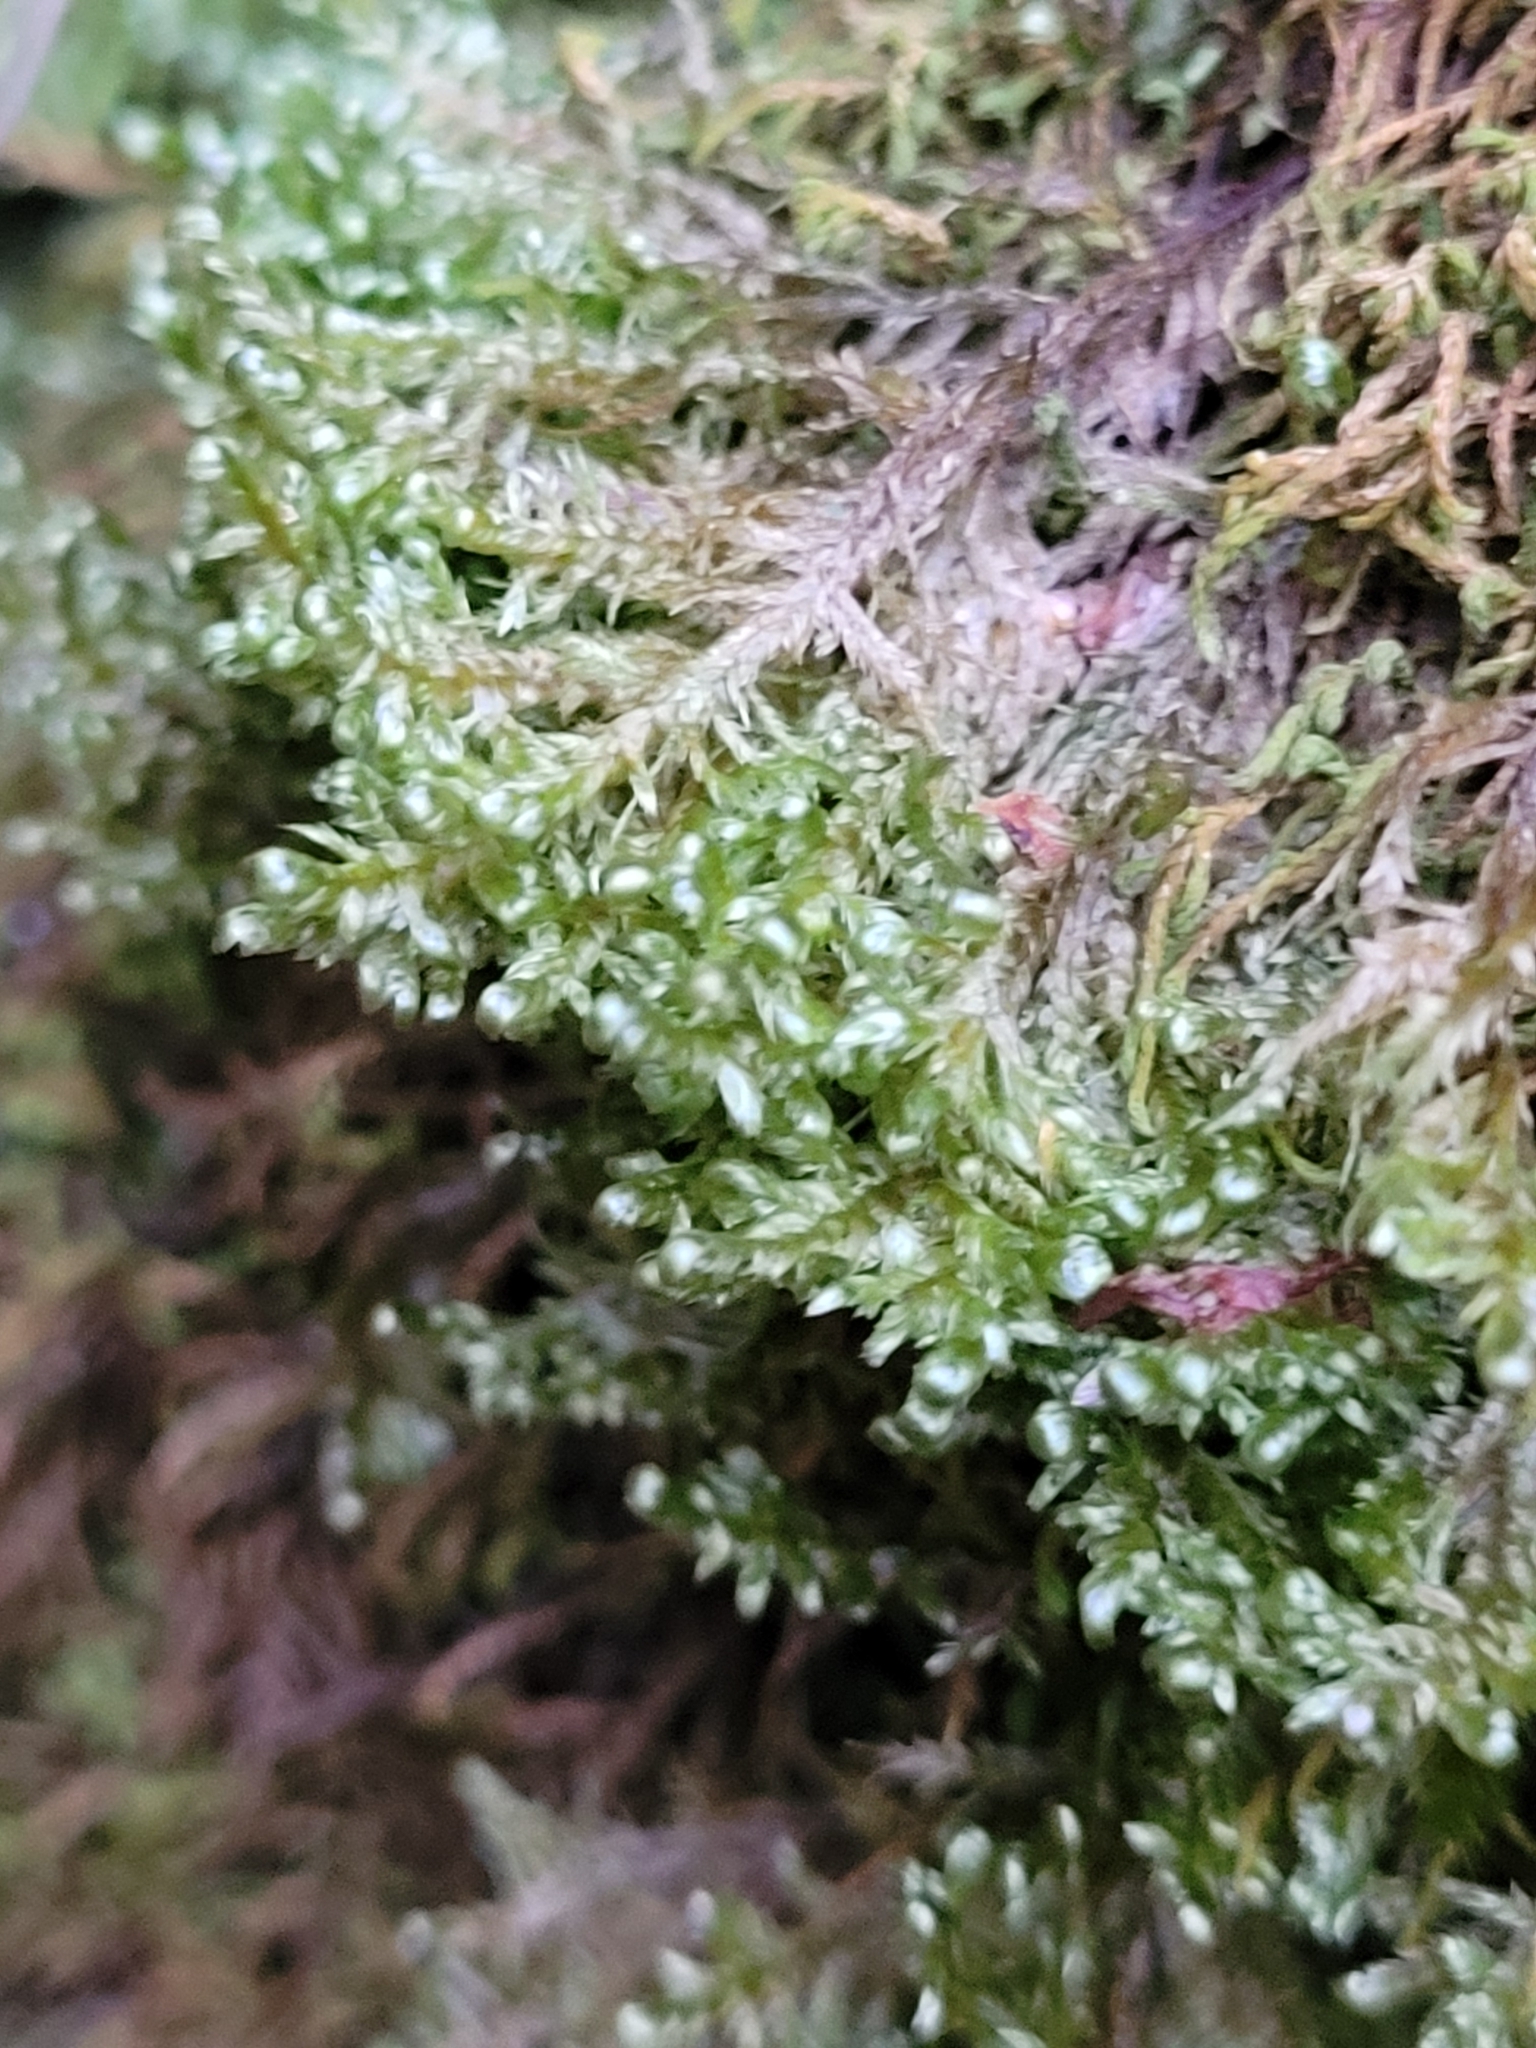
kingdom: Plantae
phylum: Bryophyta
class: Bryopsida
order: Hypnales
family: Neckeraceae
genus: Alleniella
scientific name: Alleniella complanata
